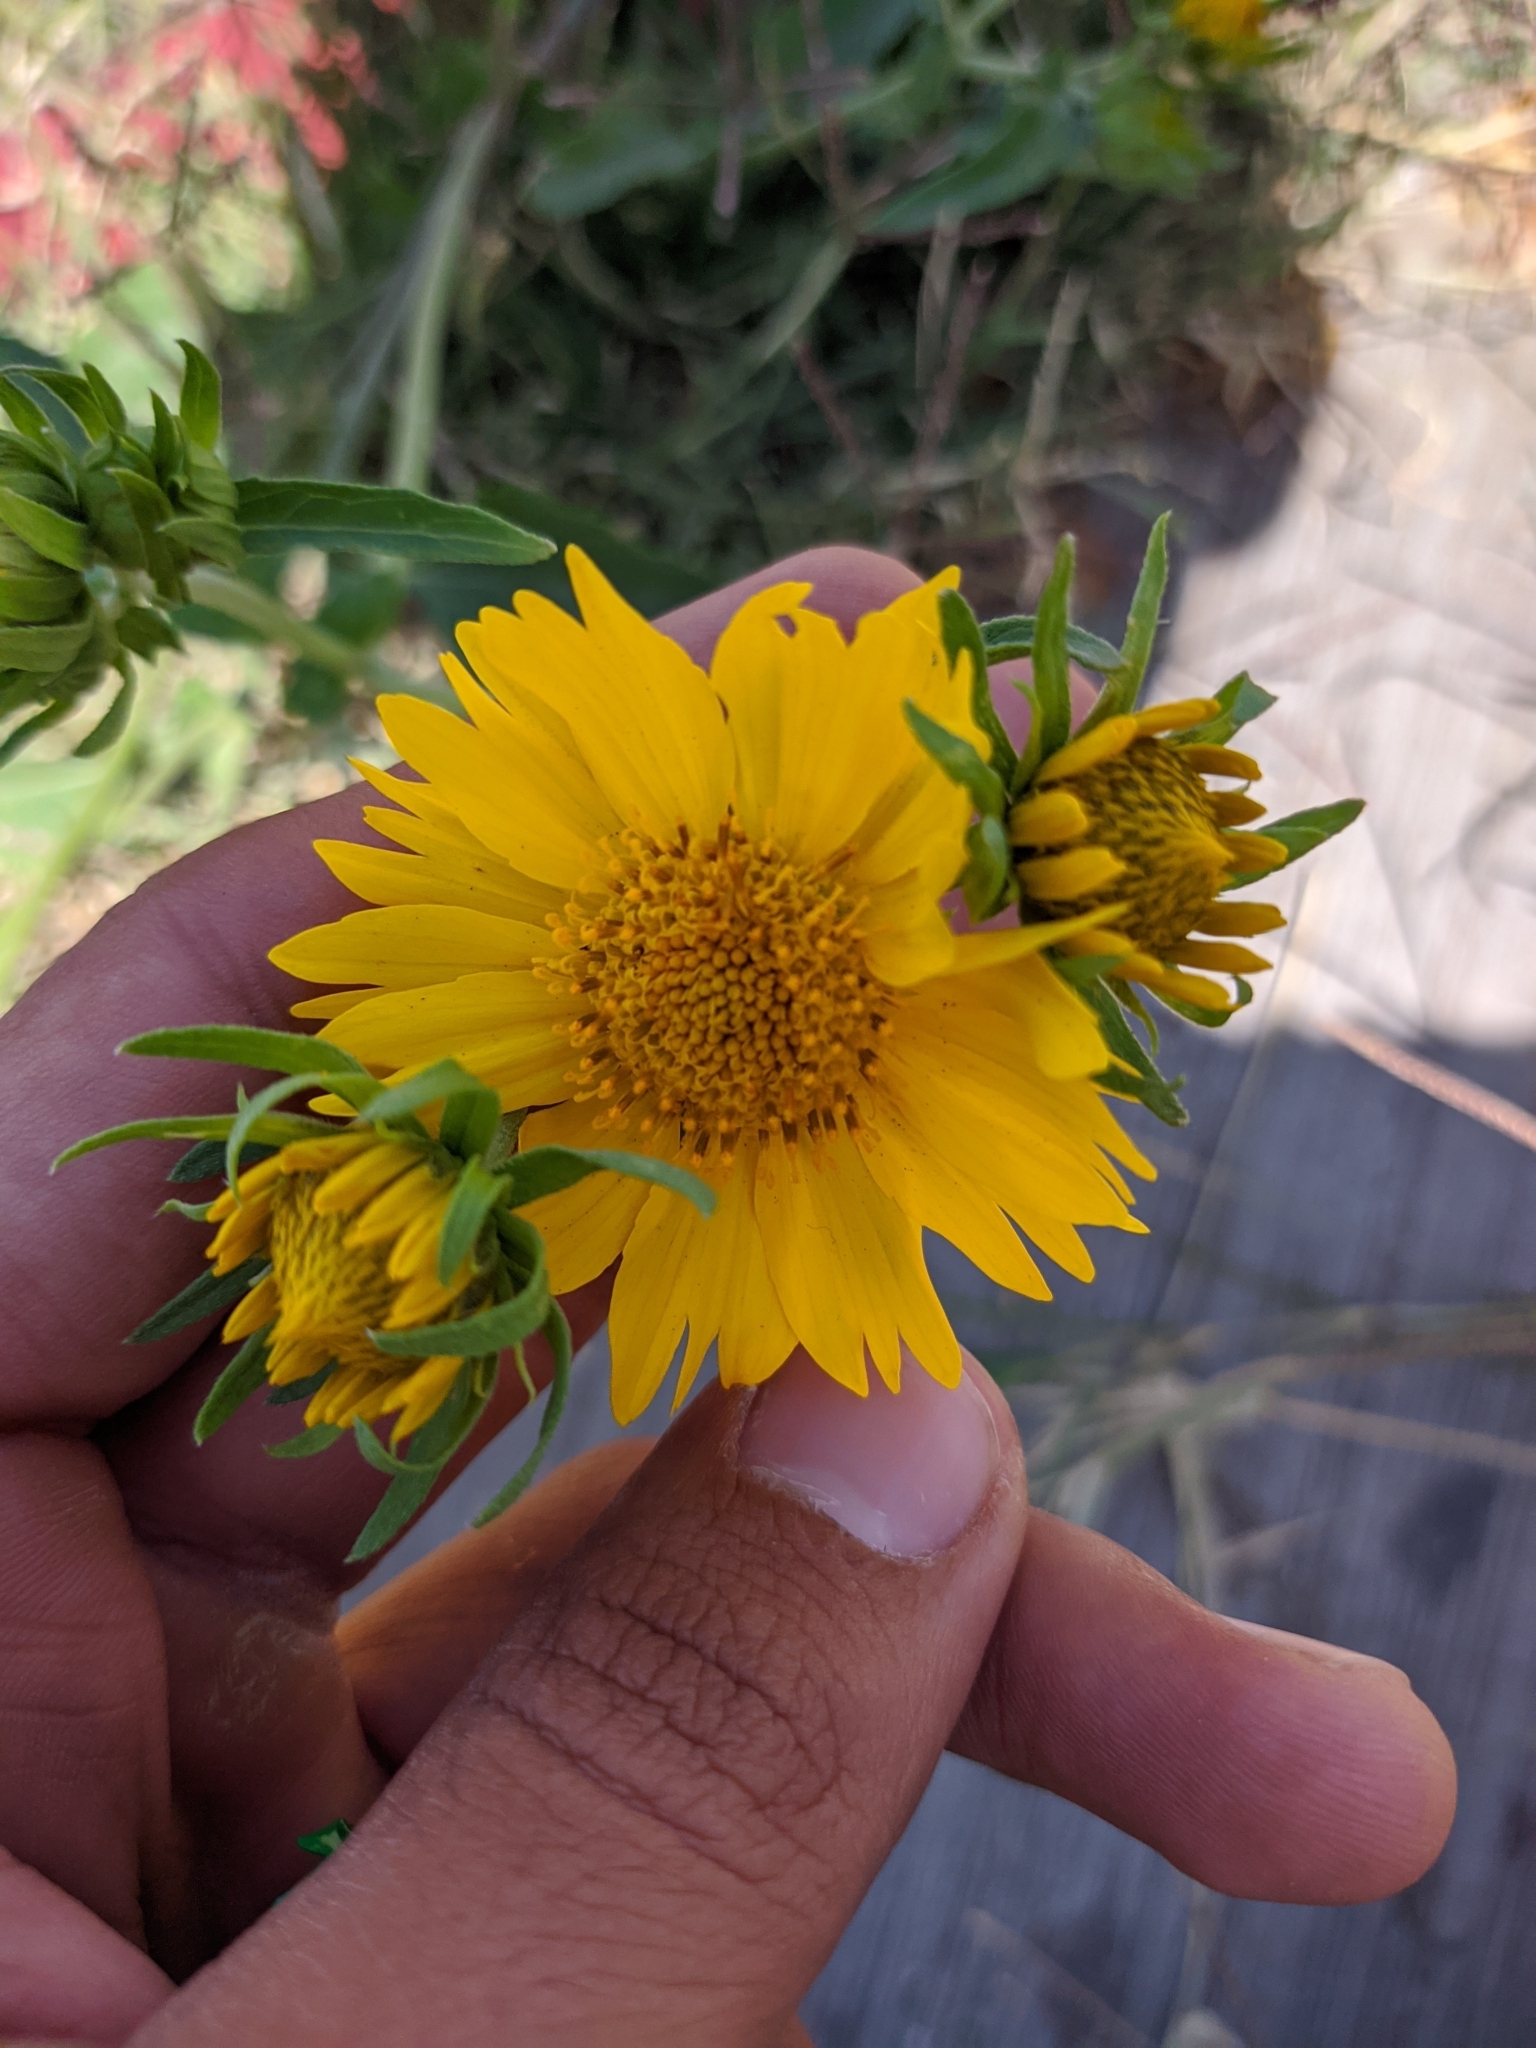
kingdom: Plantae
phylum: Tracheophyta
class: Magnoliopsida
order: Asterales
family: Asteraceae
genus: Verbesina
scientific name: Verbesina encelioides
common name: Golden crownbeard
